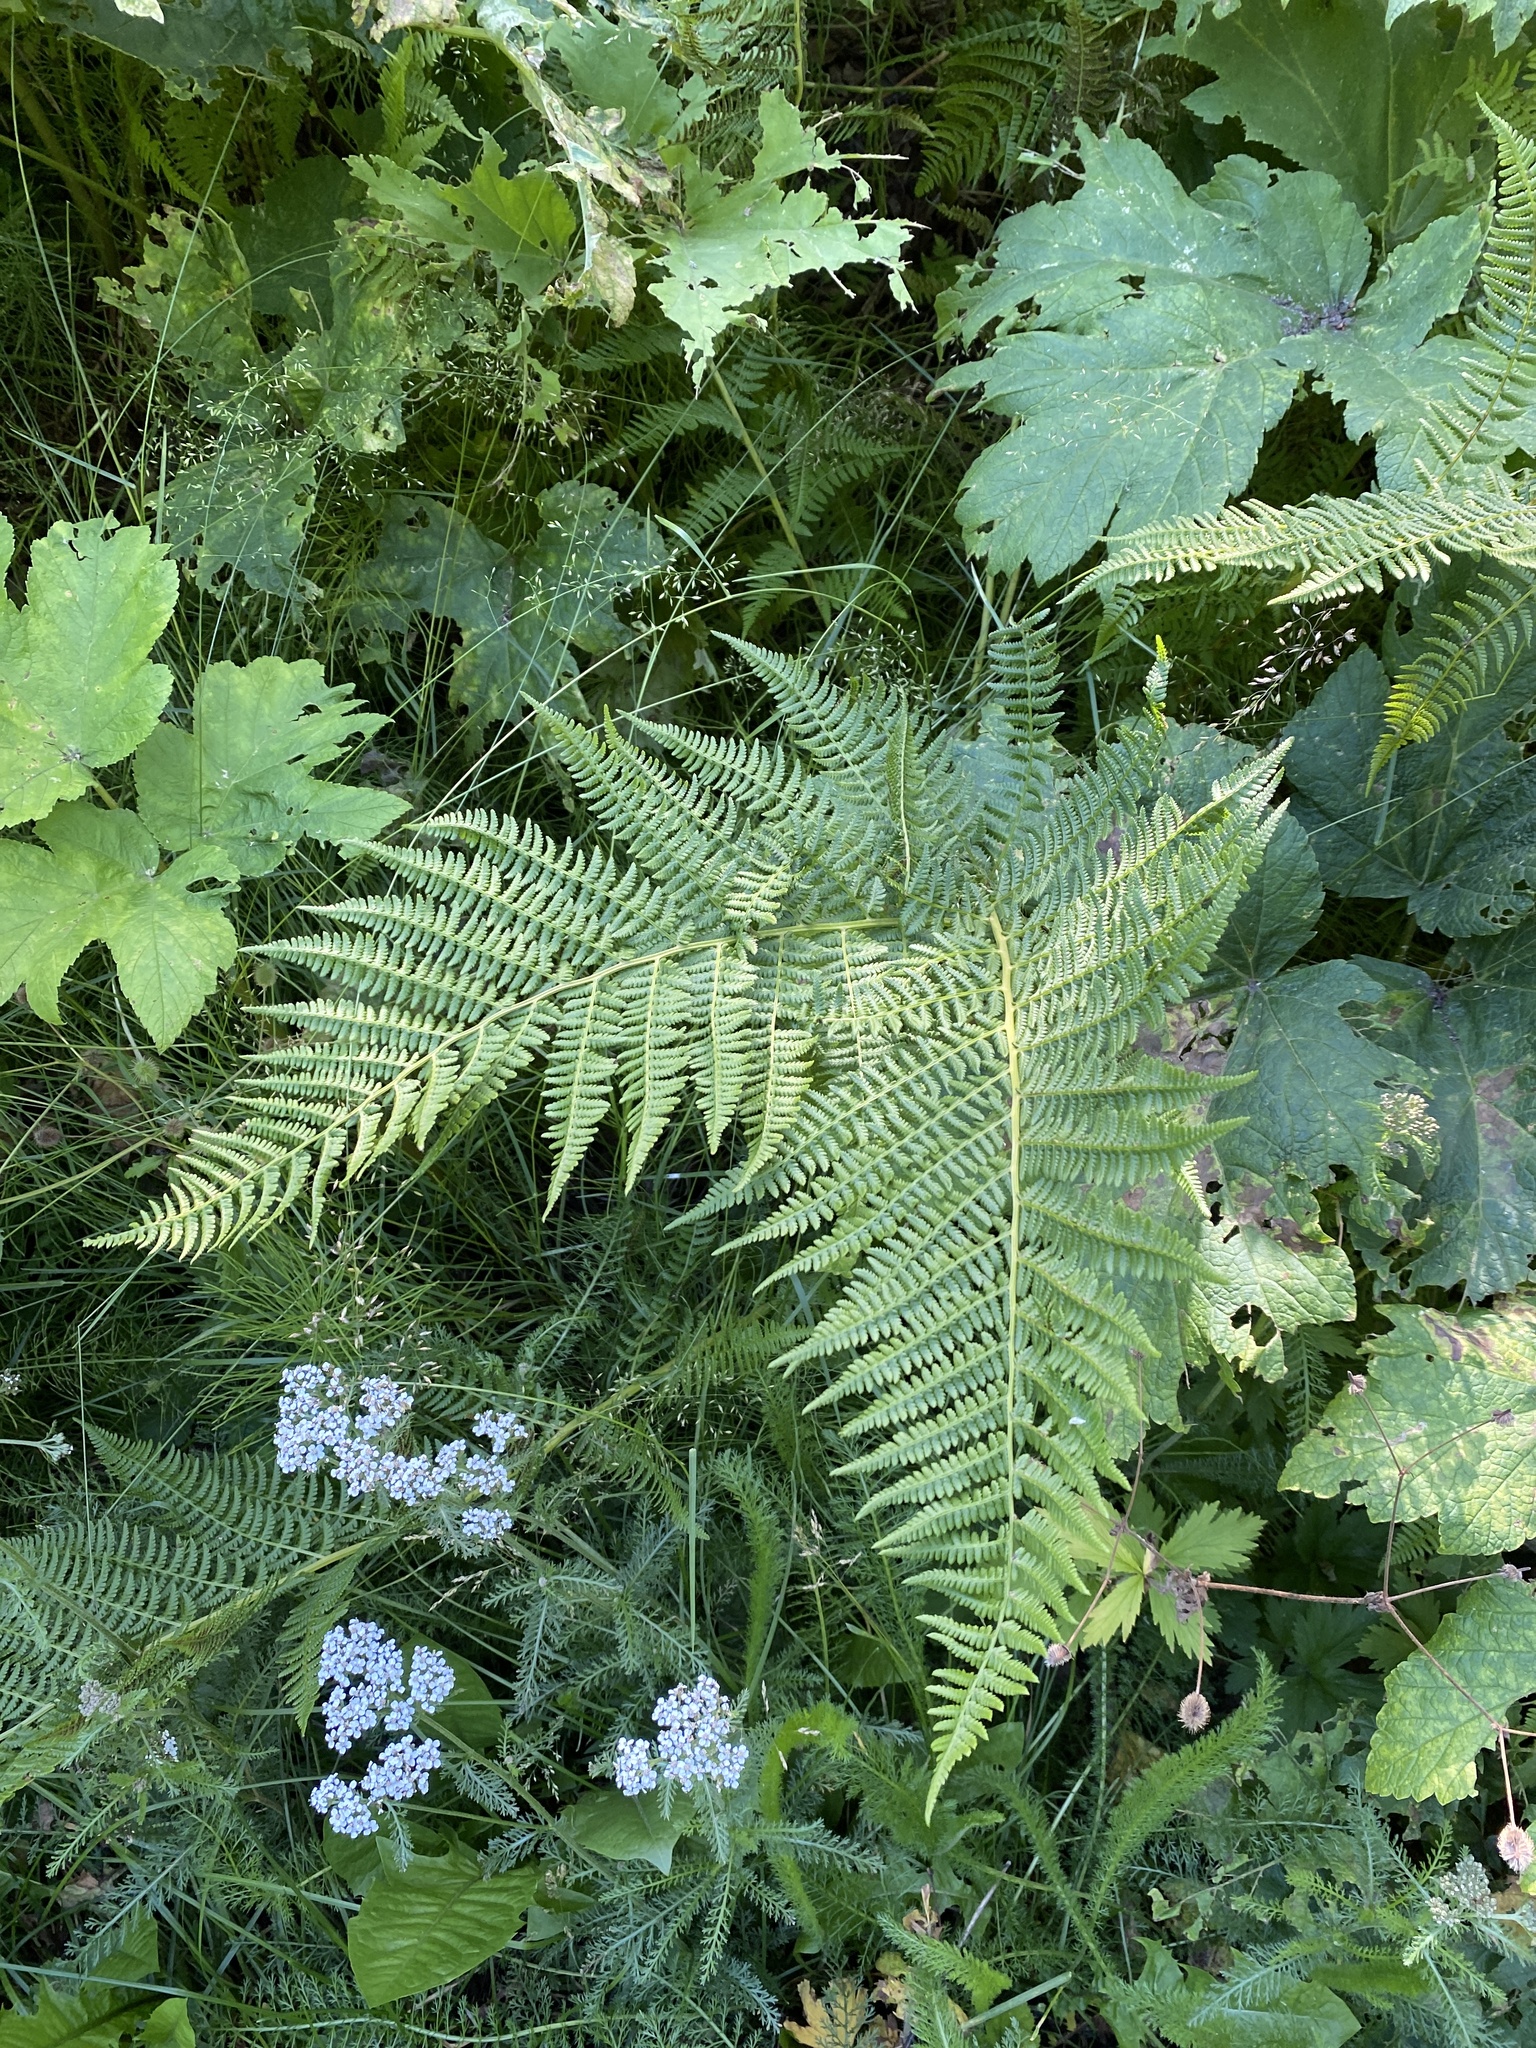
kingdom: Plantae
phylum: Tracheophyta
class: Polypodiopsida
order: Polypodiales
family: Athyriaceae
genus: Athyrium
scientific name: Athyrium filix-femina
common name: Lady fern
